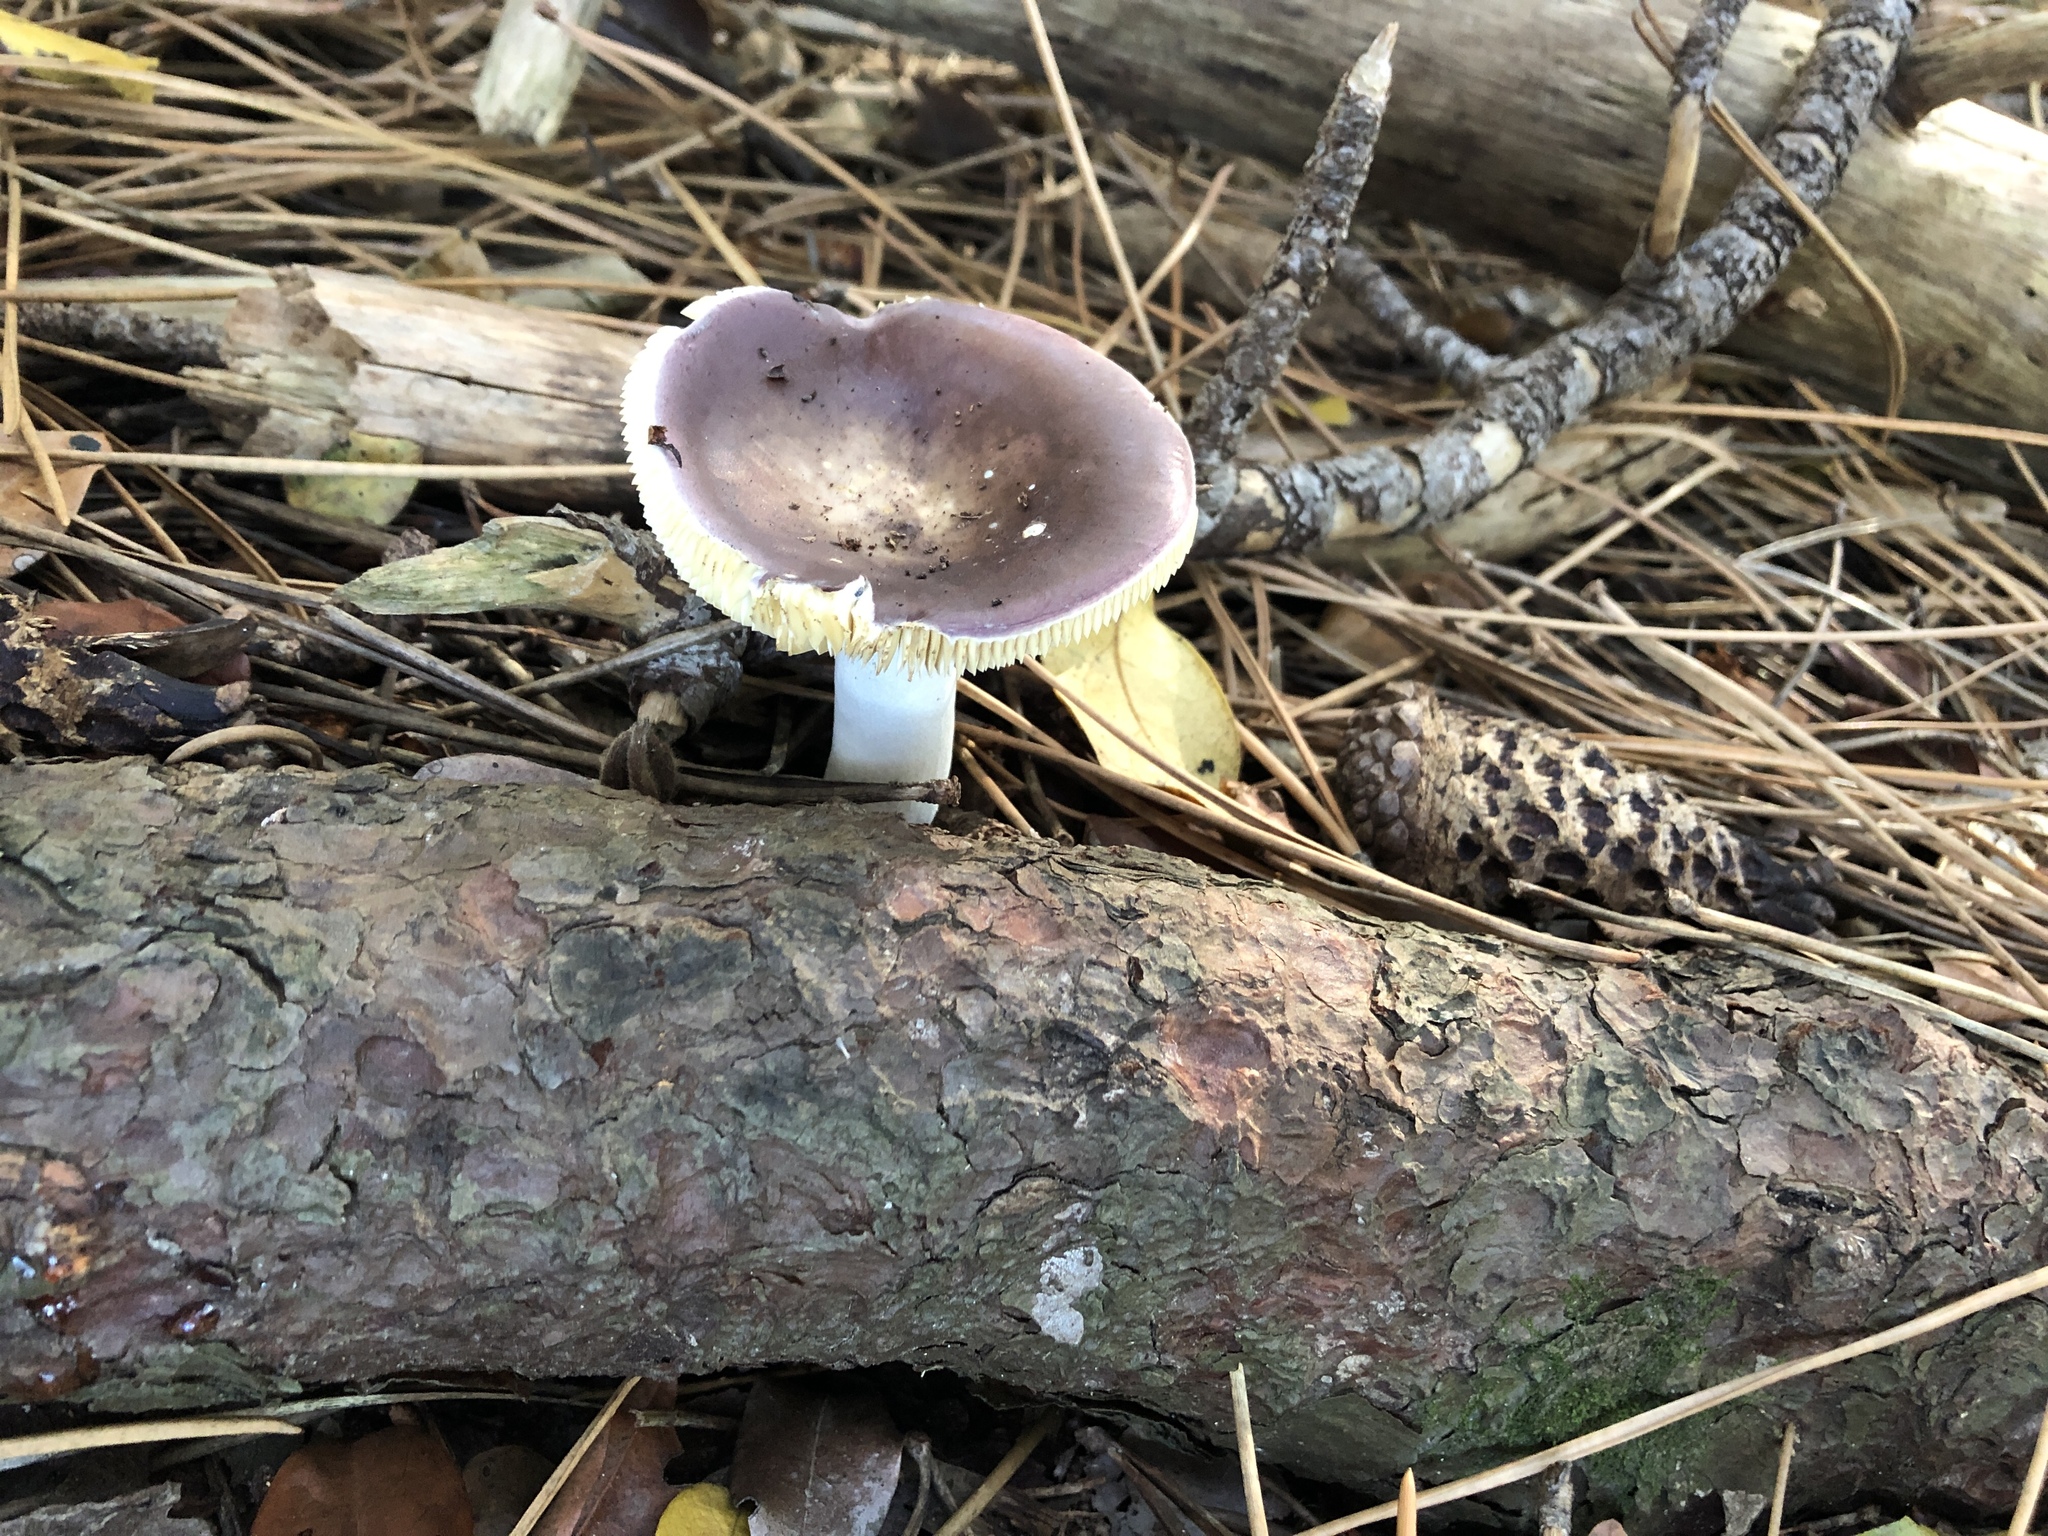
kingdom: Fungi
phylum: Basidiomycota
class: Agaricomycetes
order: Russulales
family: Russulaceae
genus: Russula
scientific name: Russula capensis
